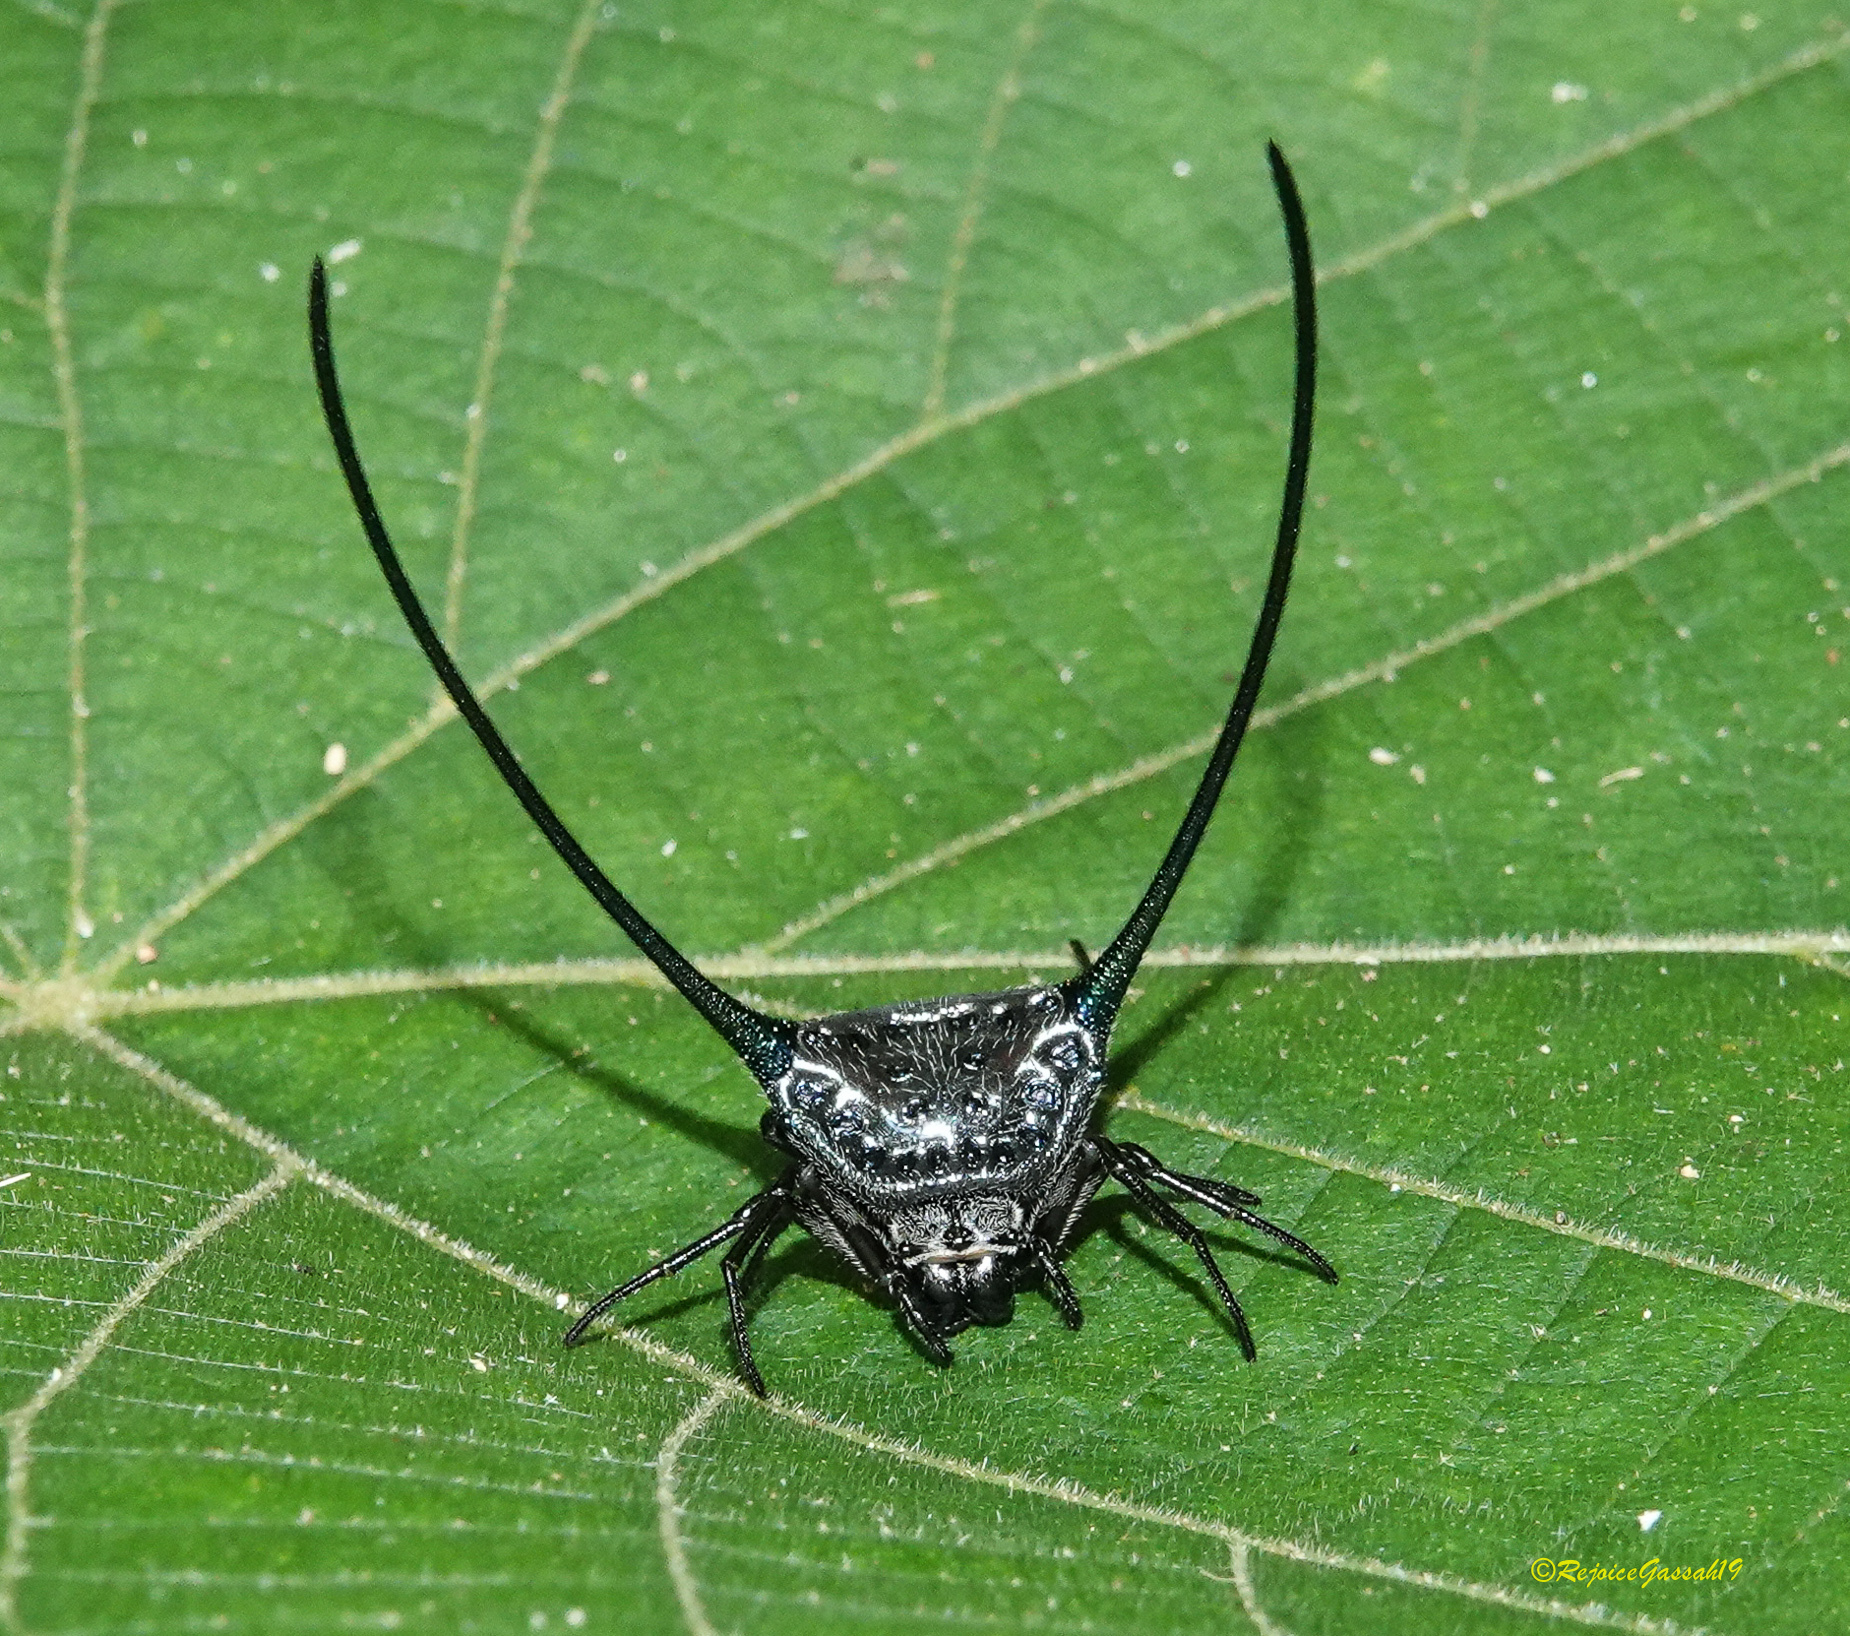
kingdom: Animalia
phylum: Arthropoda
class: Arachnida
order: Araneae
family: Araneidae
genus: Macracantha
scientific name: Macracantha arcuata
